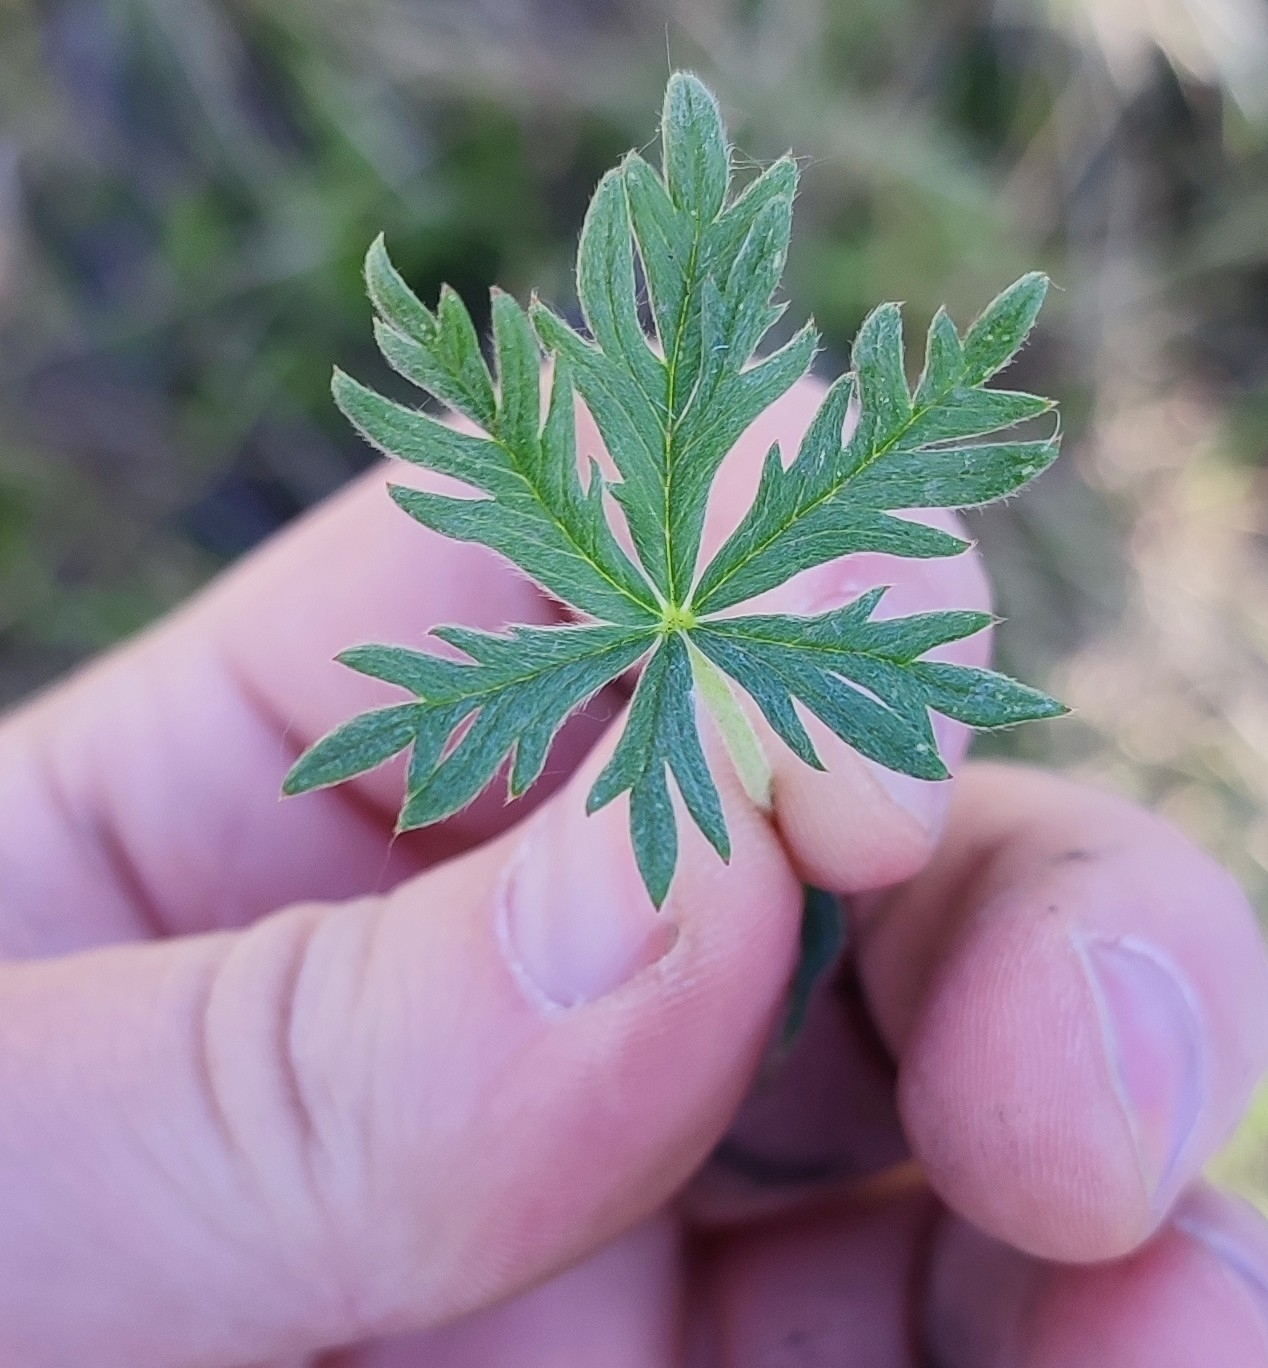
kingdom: Plantae
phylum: Tracheophyta
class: Magnoliopsida
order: Rosales
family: Rosaceae
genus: Potentilla
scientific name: Potentilla argentea
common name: Hoary cinquefoil
